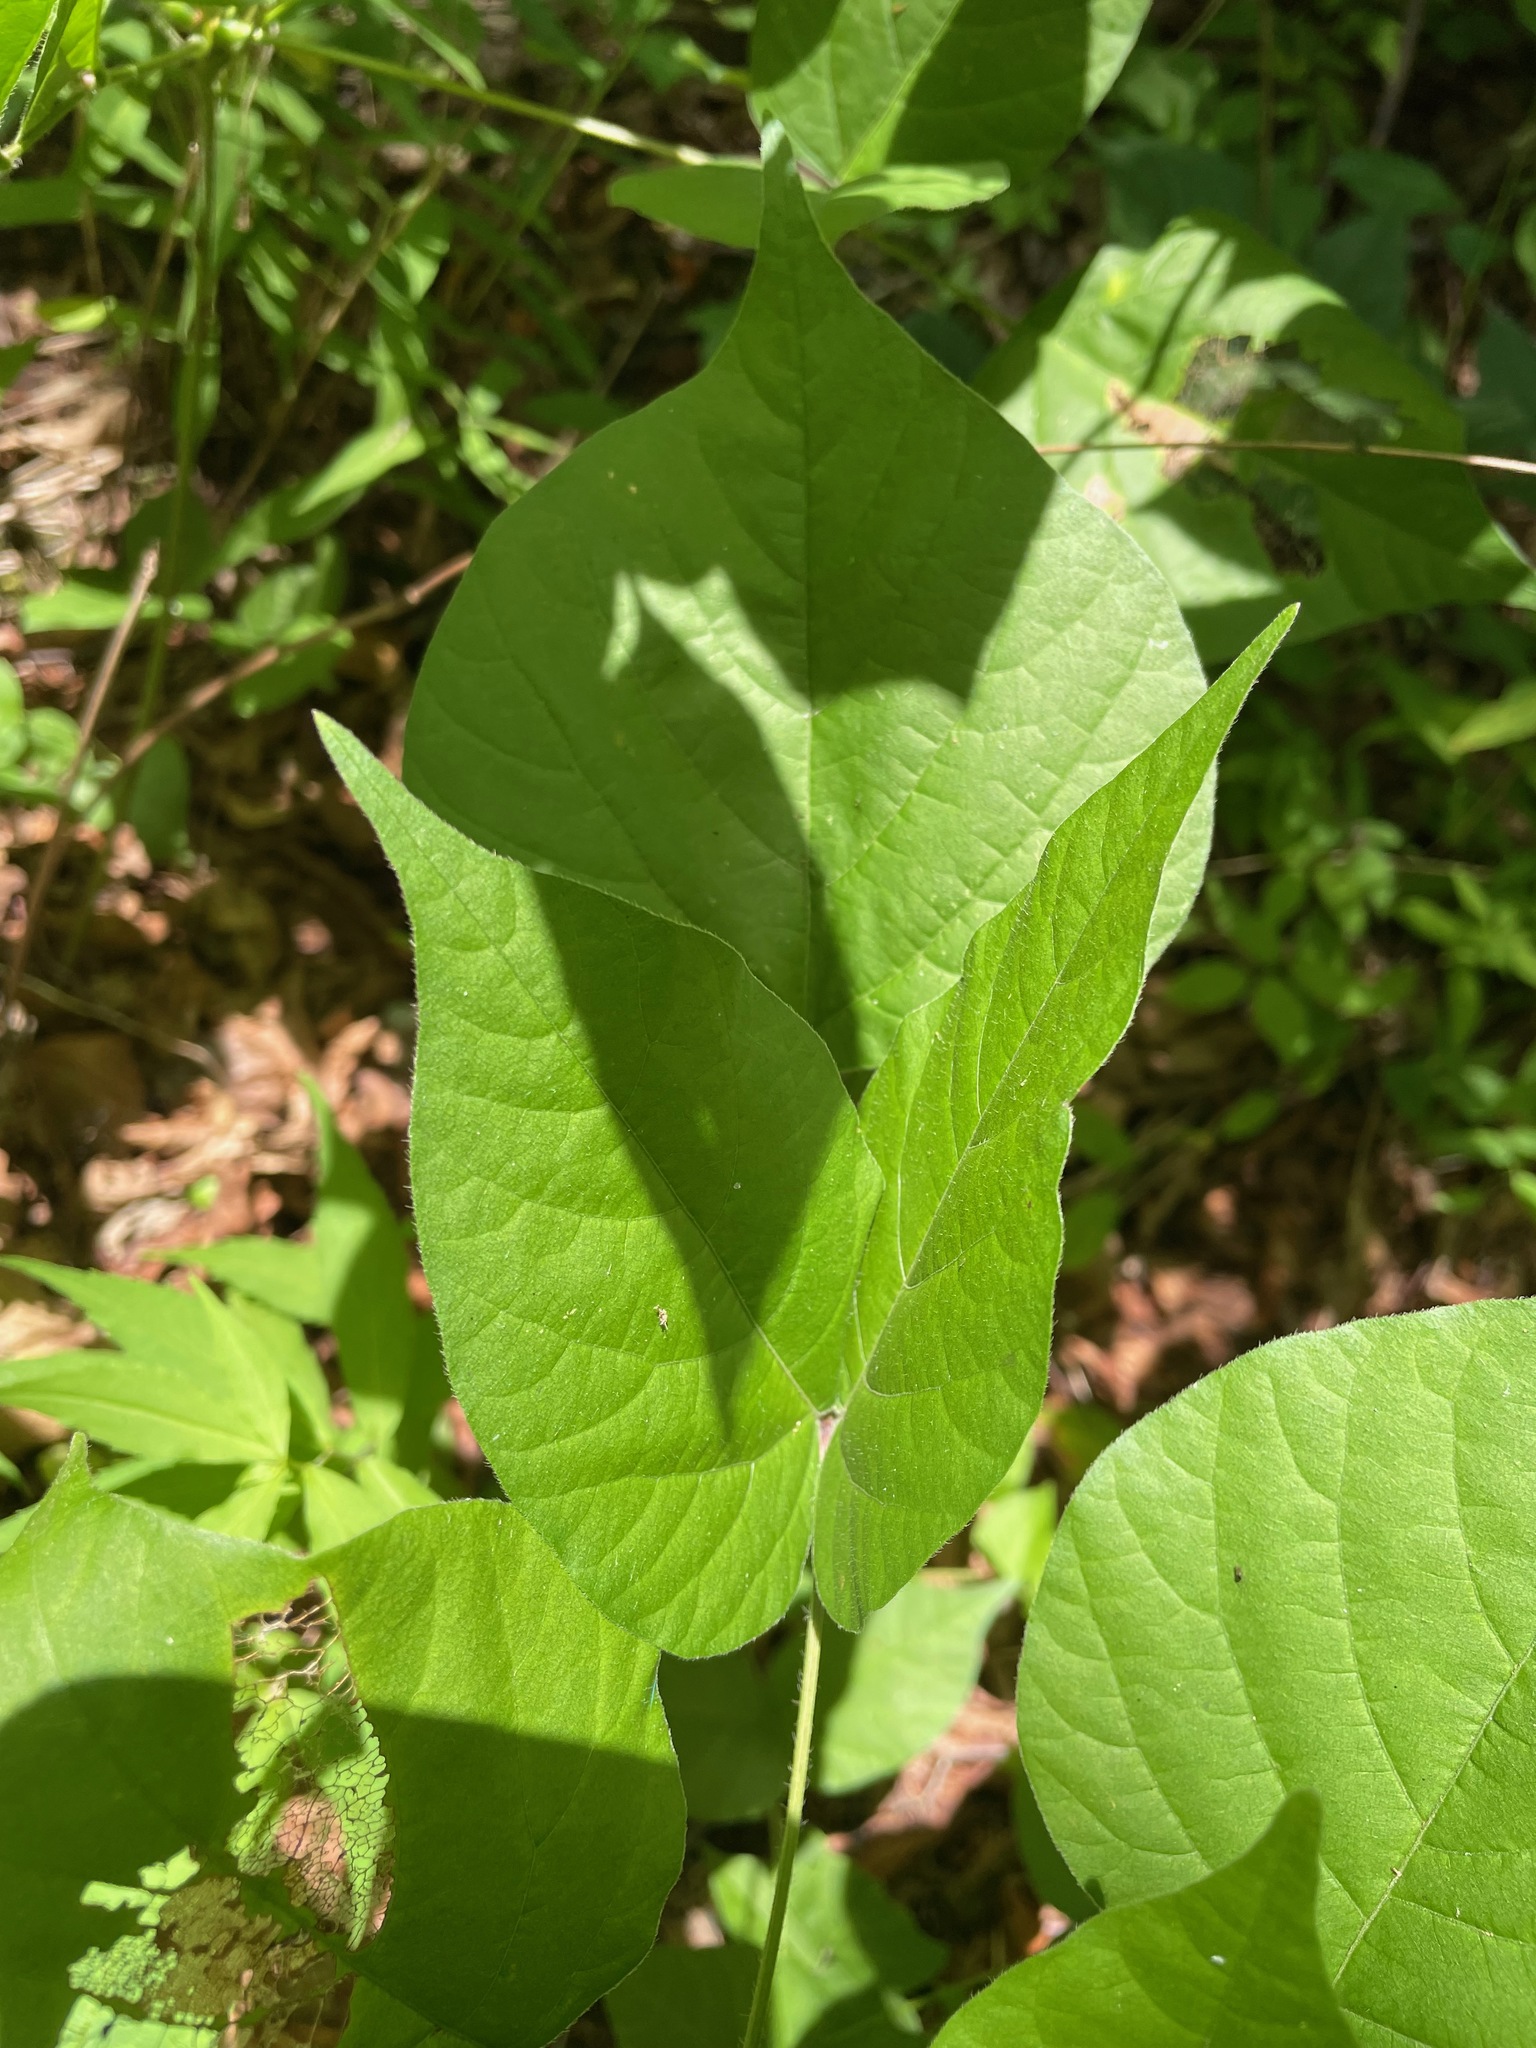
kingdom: Plantae
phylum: Tracheophyta
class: Magnoliopsida
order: Fabales
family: Fabaceae
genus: Hylodesmum
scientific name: Hylodesmum glutinosum
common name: Clustered-leaved tick-trefoil
